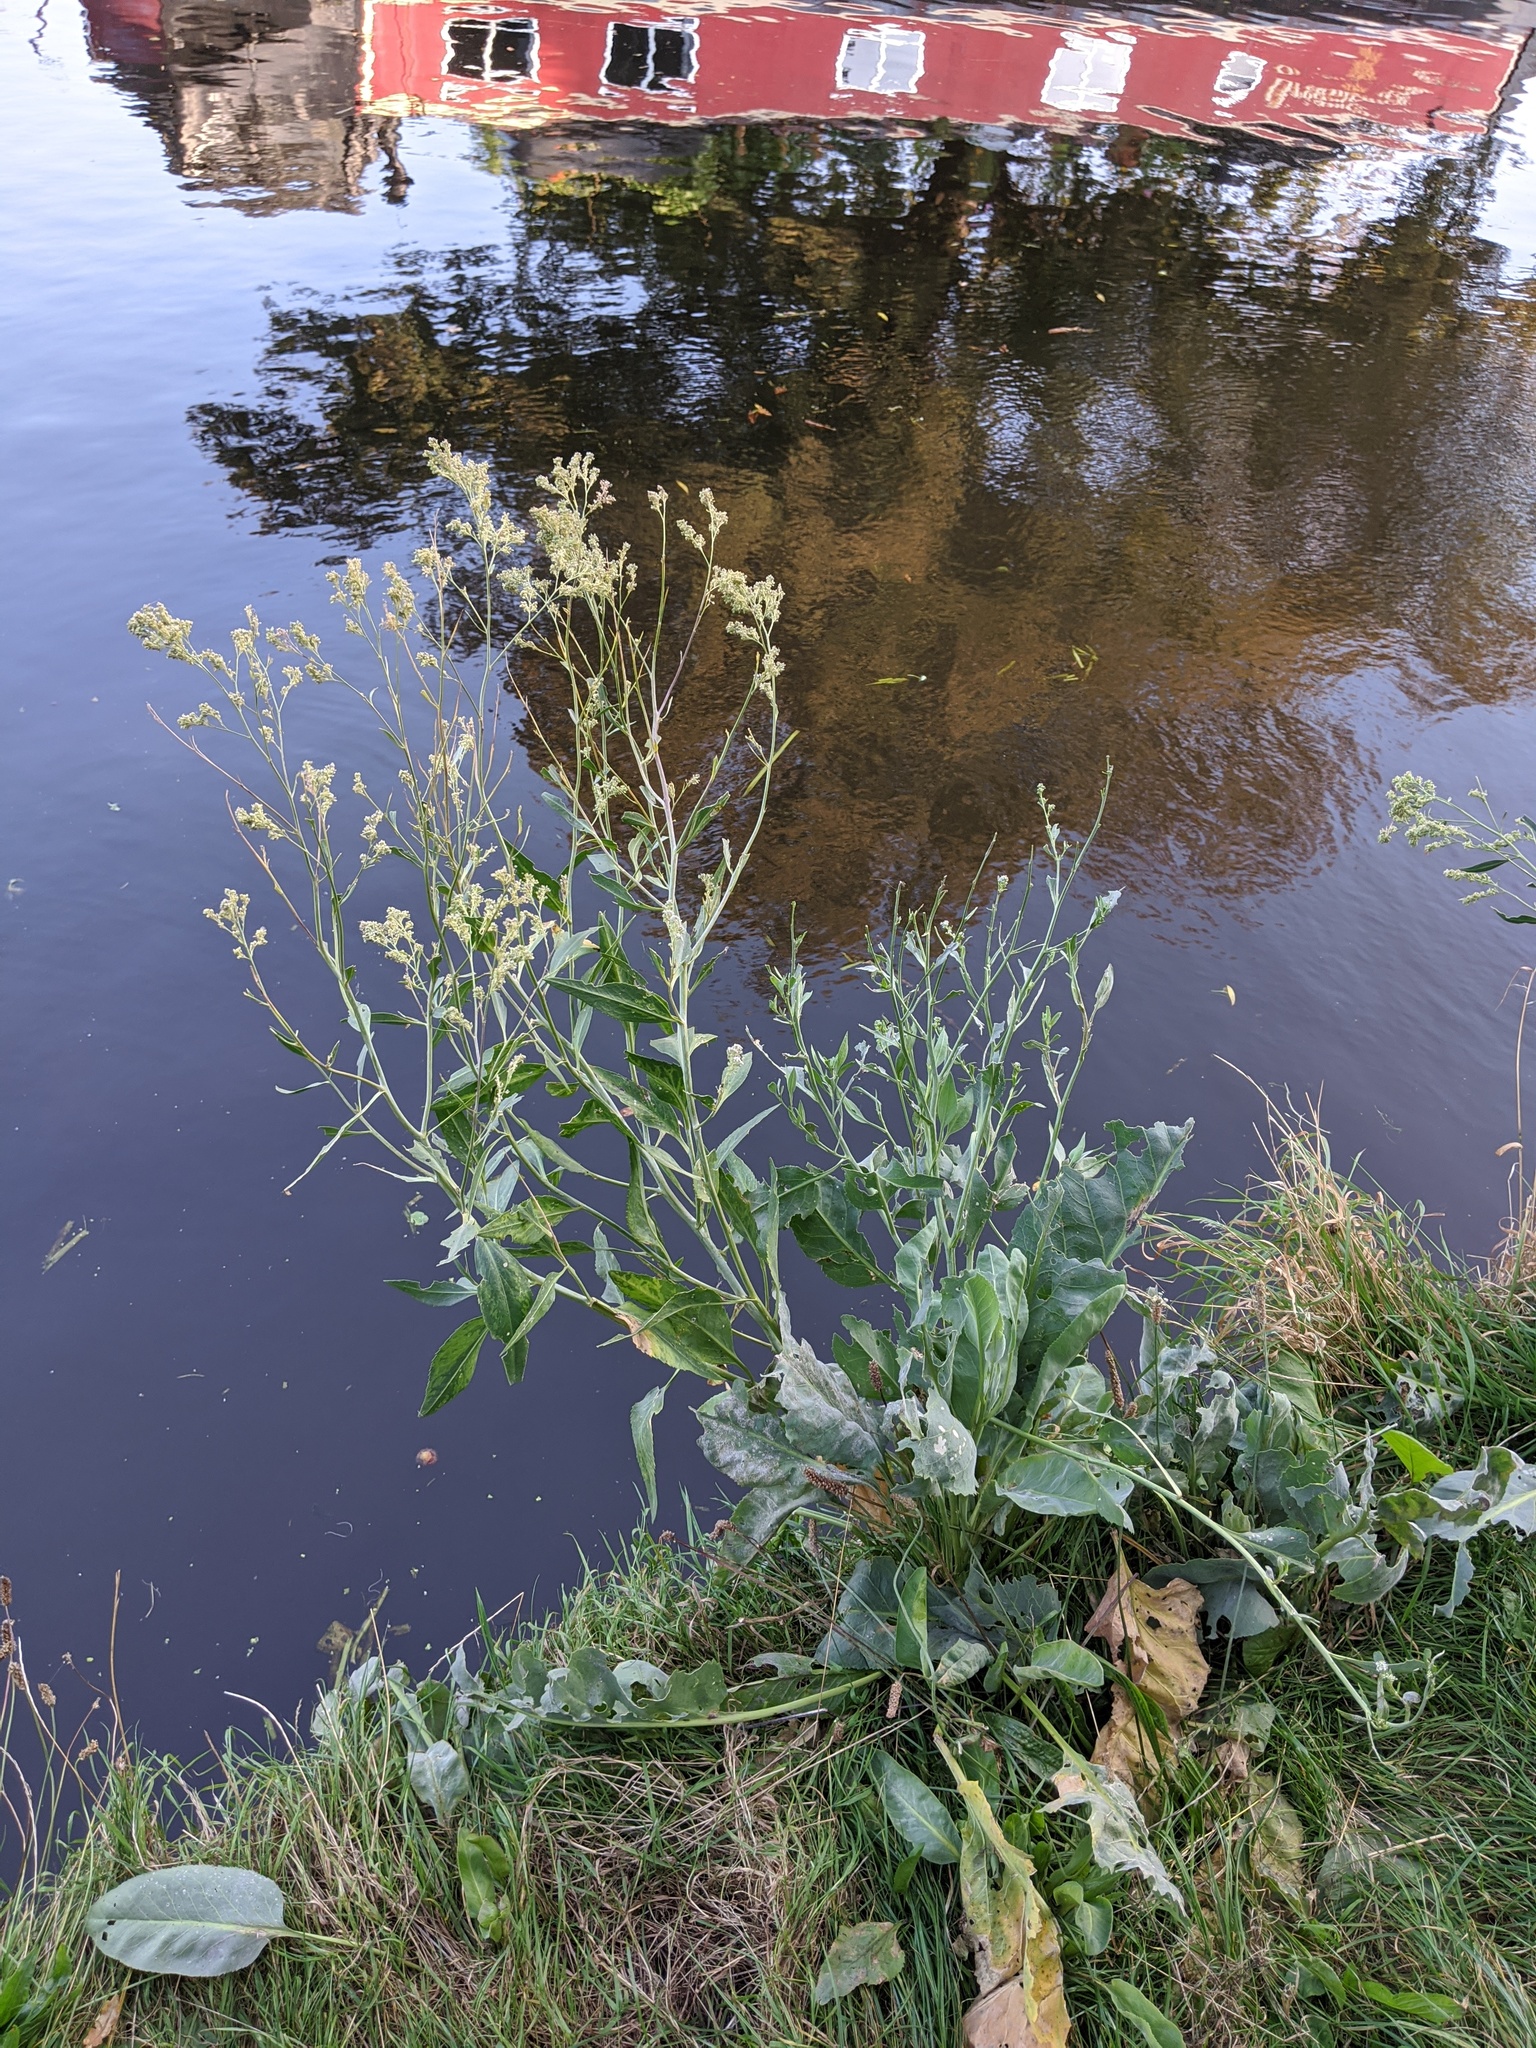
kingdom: Plantae
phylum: Tracheophyta
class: Magnoliopsida
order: Brassicales
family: Brassicaceae
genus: Lepidium
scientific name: Lepidium latifolium
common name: Dittander
